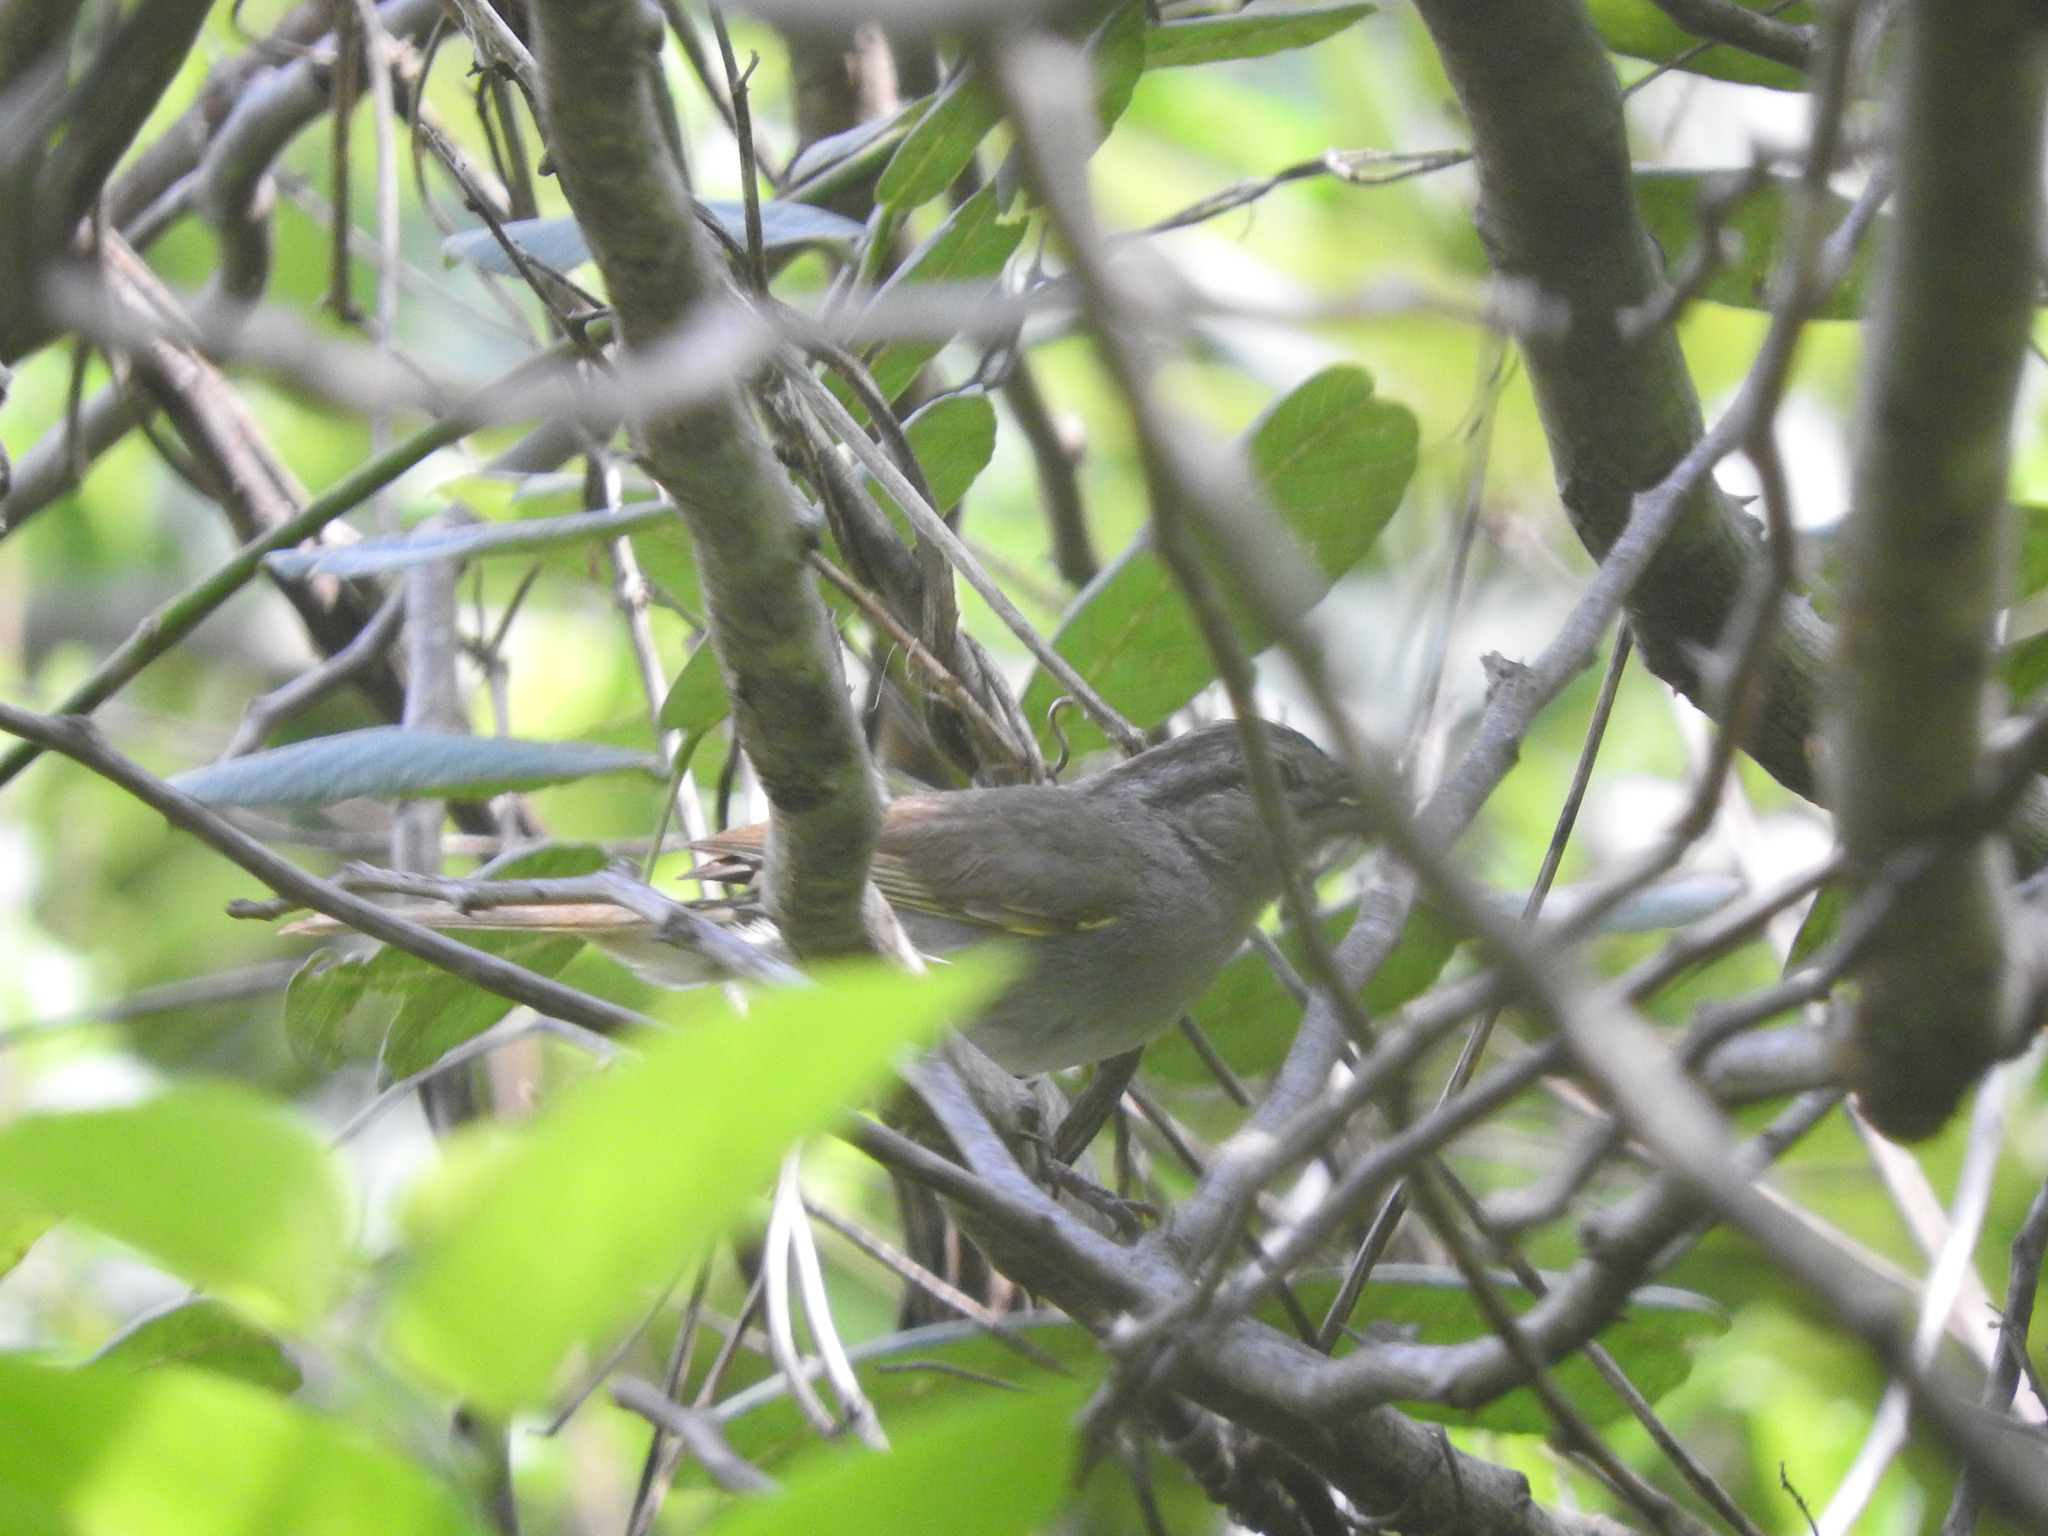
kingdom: Animalia
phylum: Chordata
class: Aves
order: Passeriformes
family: Passerellidae
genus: Arremonops
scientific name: Arremonops rufivirgatus
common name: Olive sparrow
